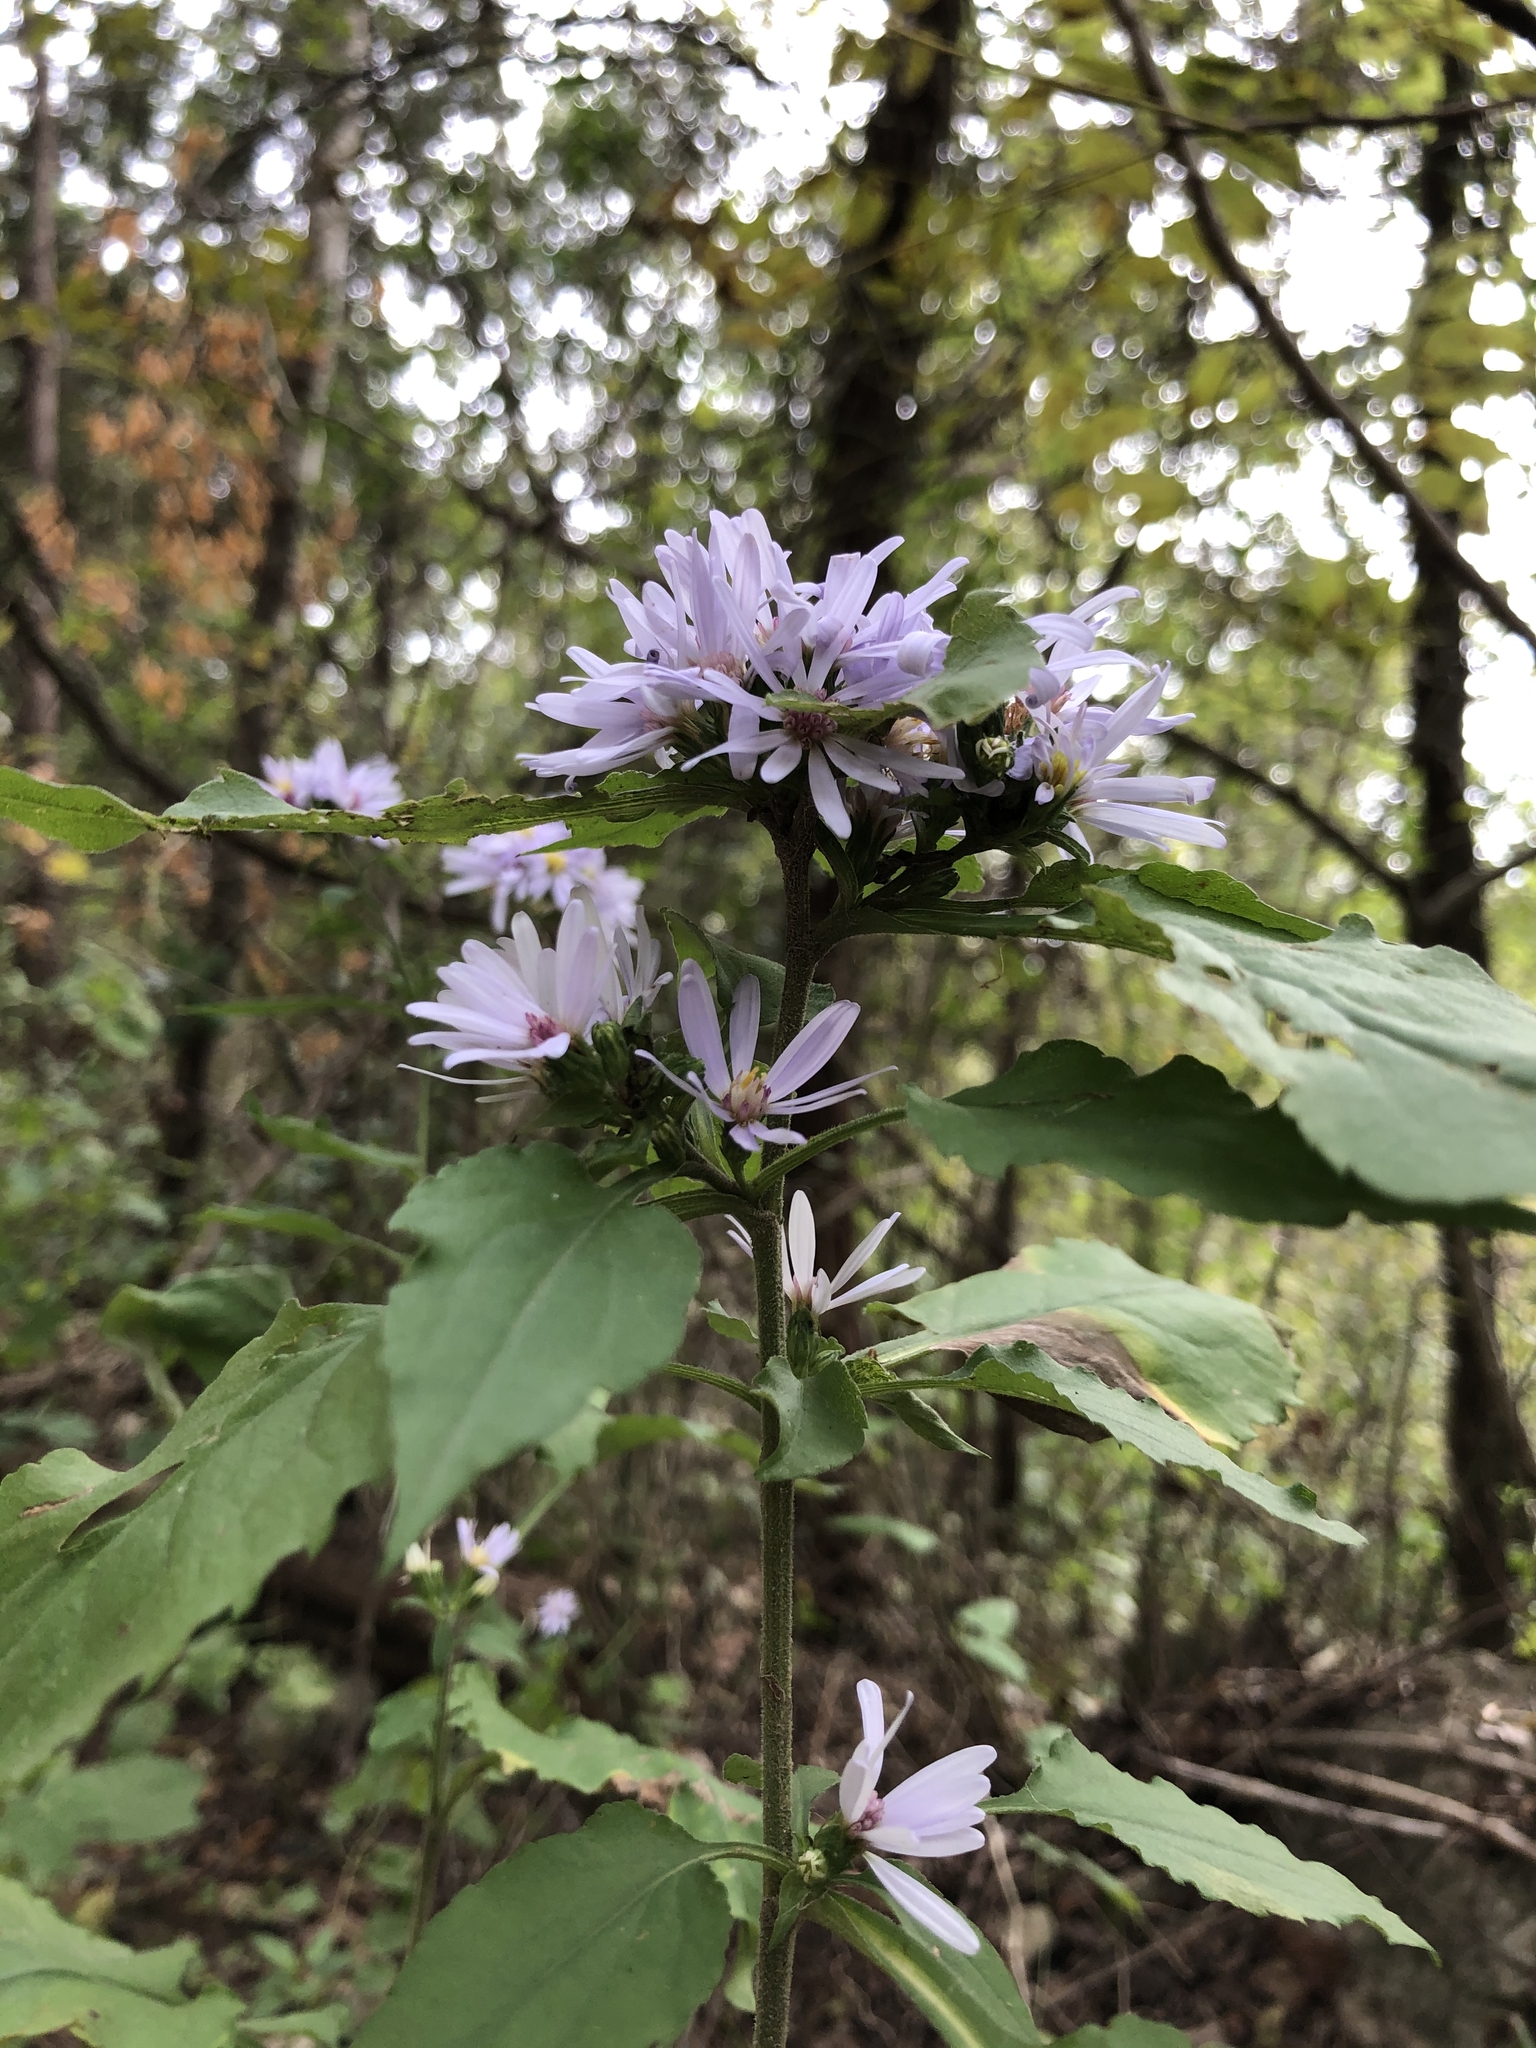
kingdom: Plantae
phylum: Tracheophyta
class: Magnoliopsida
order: Asterales
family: Asteraceae
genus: Symphyotrichum
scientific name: Symphyotrichum drummondii
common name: Drummond's aster
